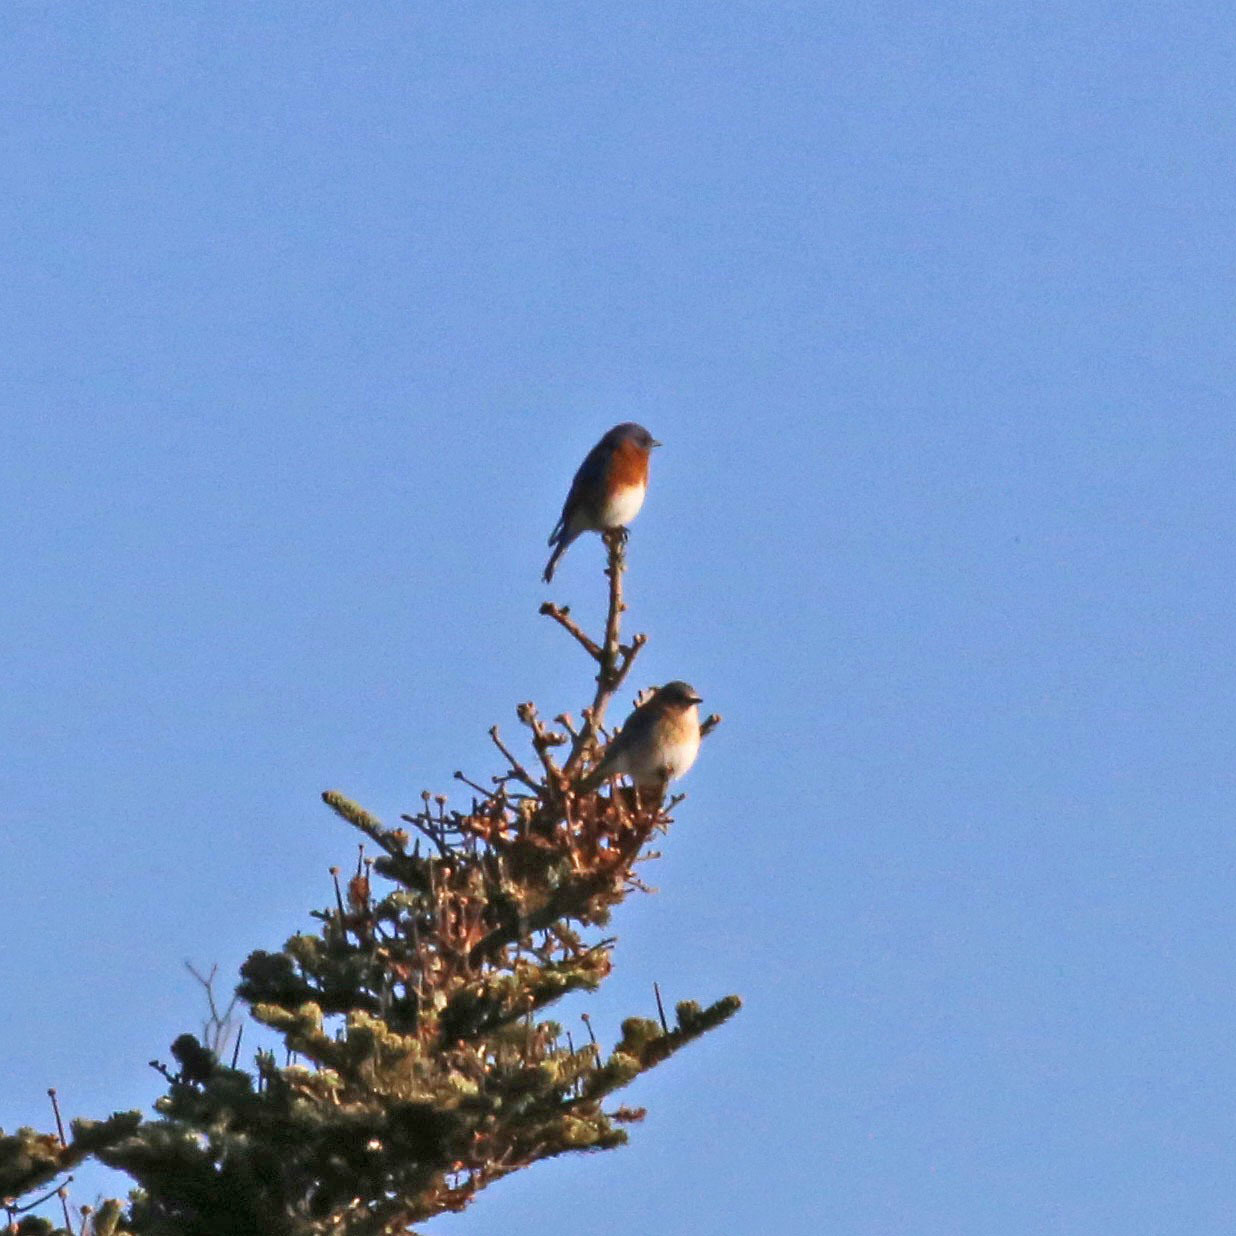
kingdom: Animalia
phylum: Chordata
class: Aves
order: Passeriformes
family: Turdidae
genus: Sialia
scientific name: Sialia sialis
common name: Eastern bluebird
